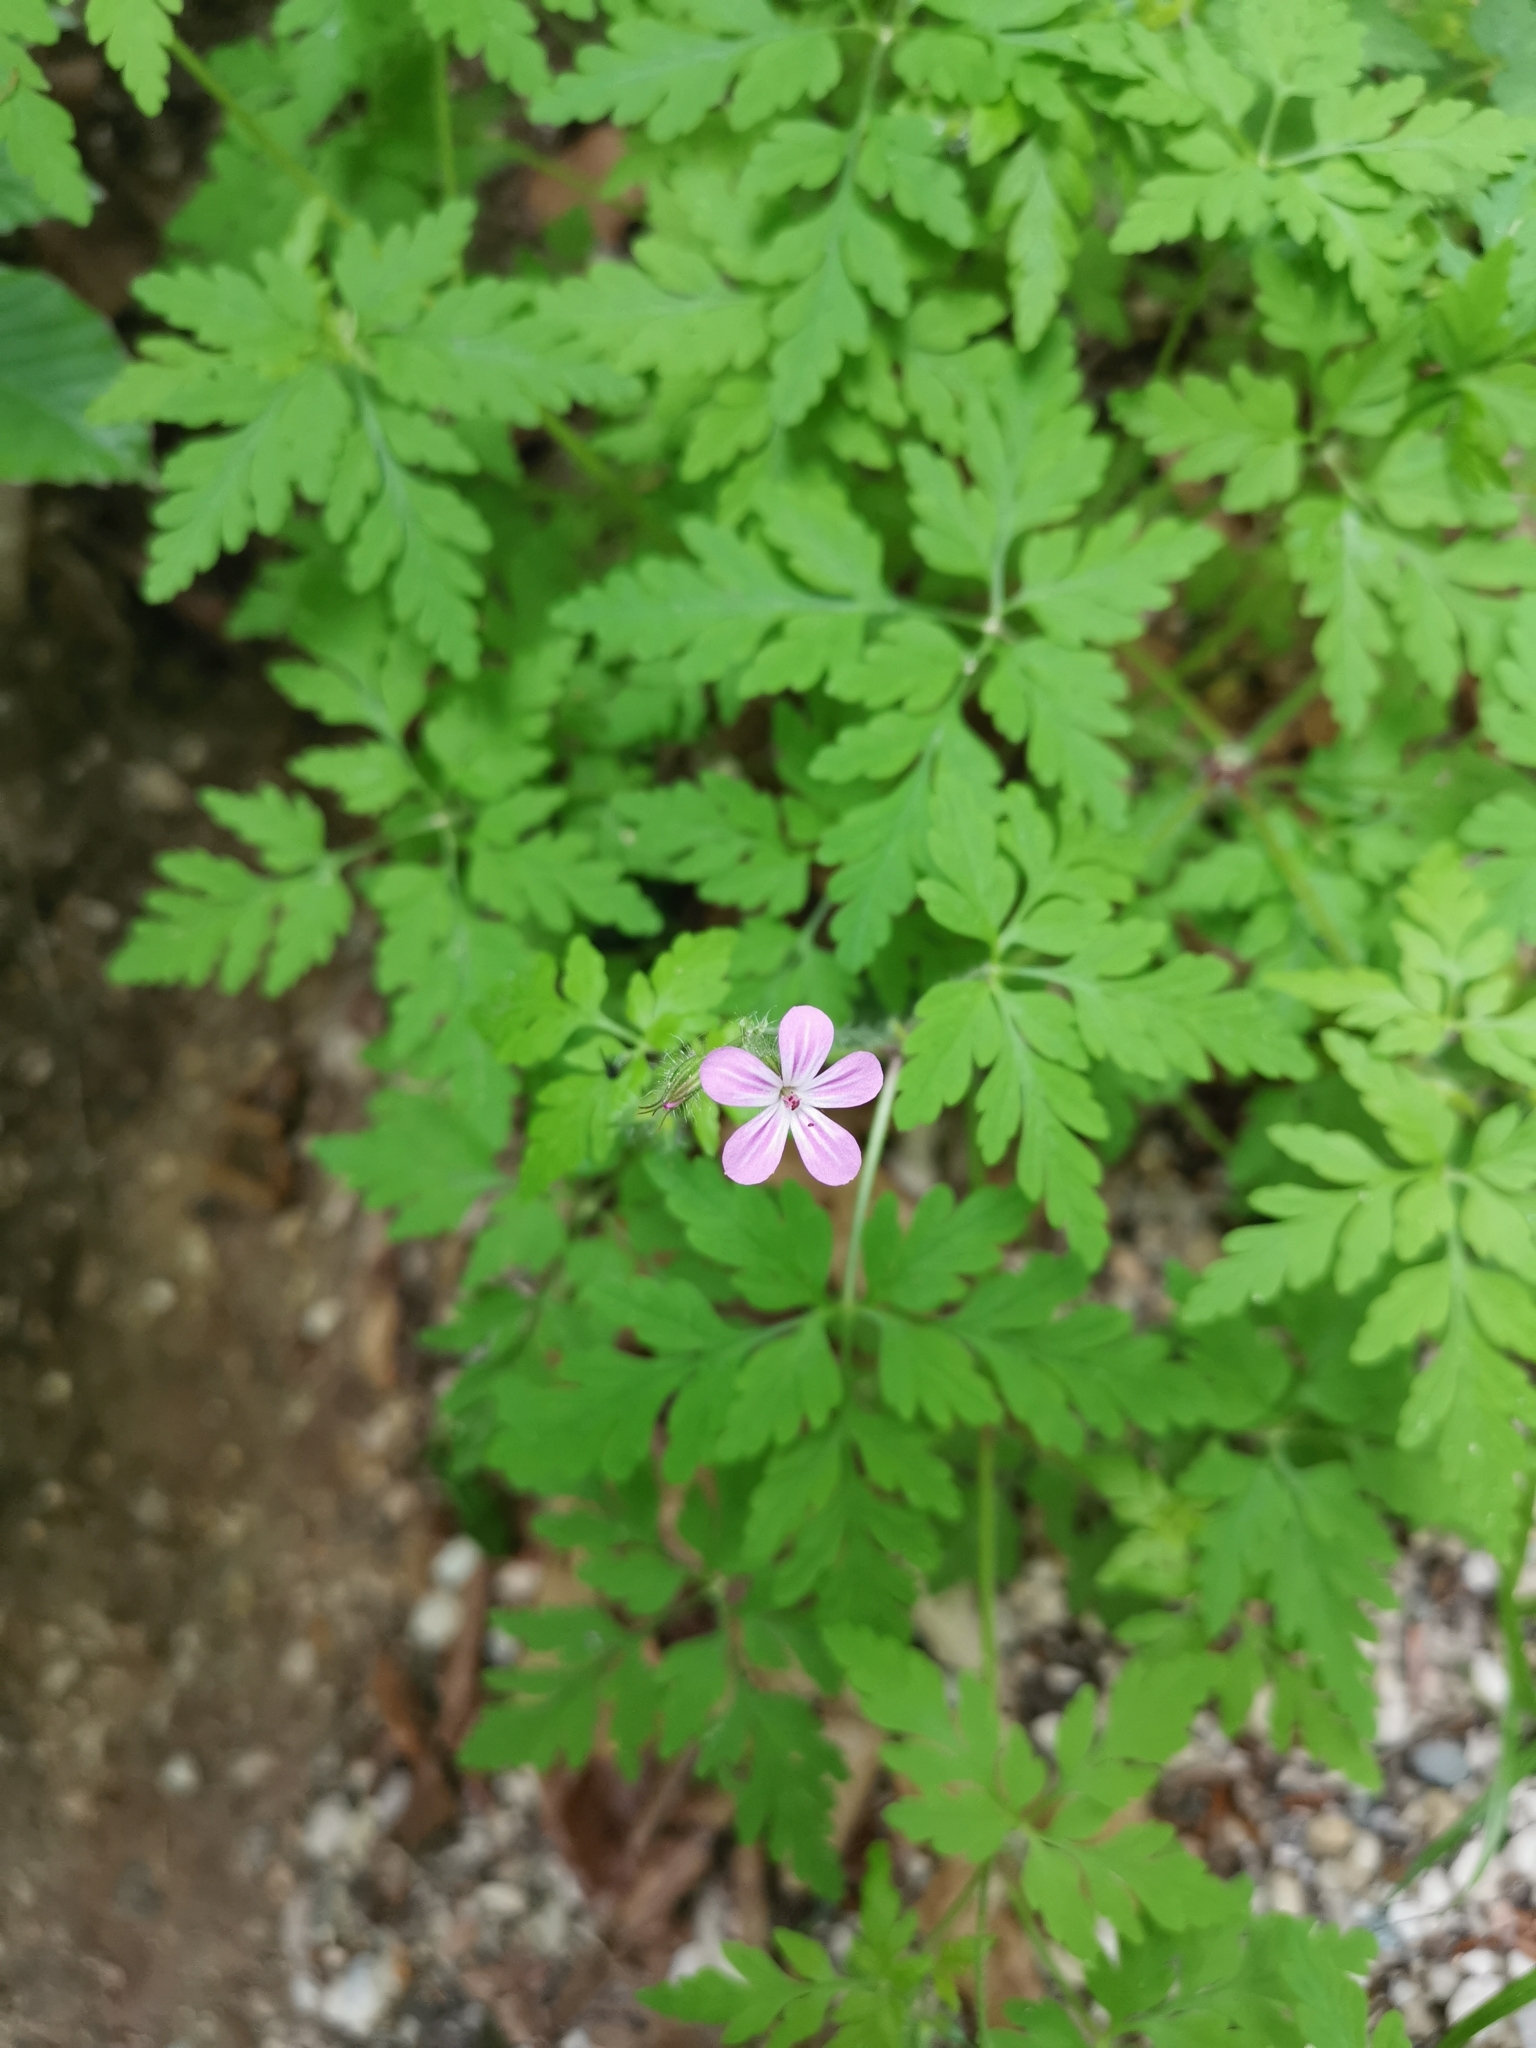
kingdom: Plantae
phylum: Tracheophyta
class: Magnoliopsida
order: Geraniales
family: Geraniaceae
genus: Geranium
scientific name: Geranium robertianum
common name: Herb-robert
